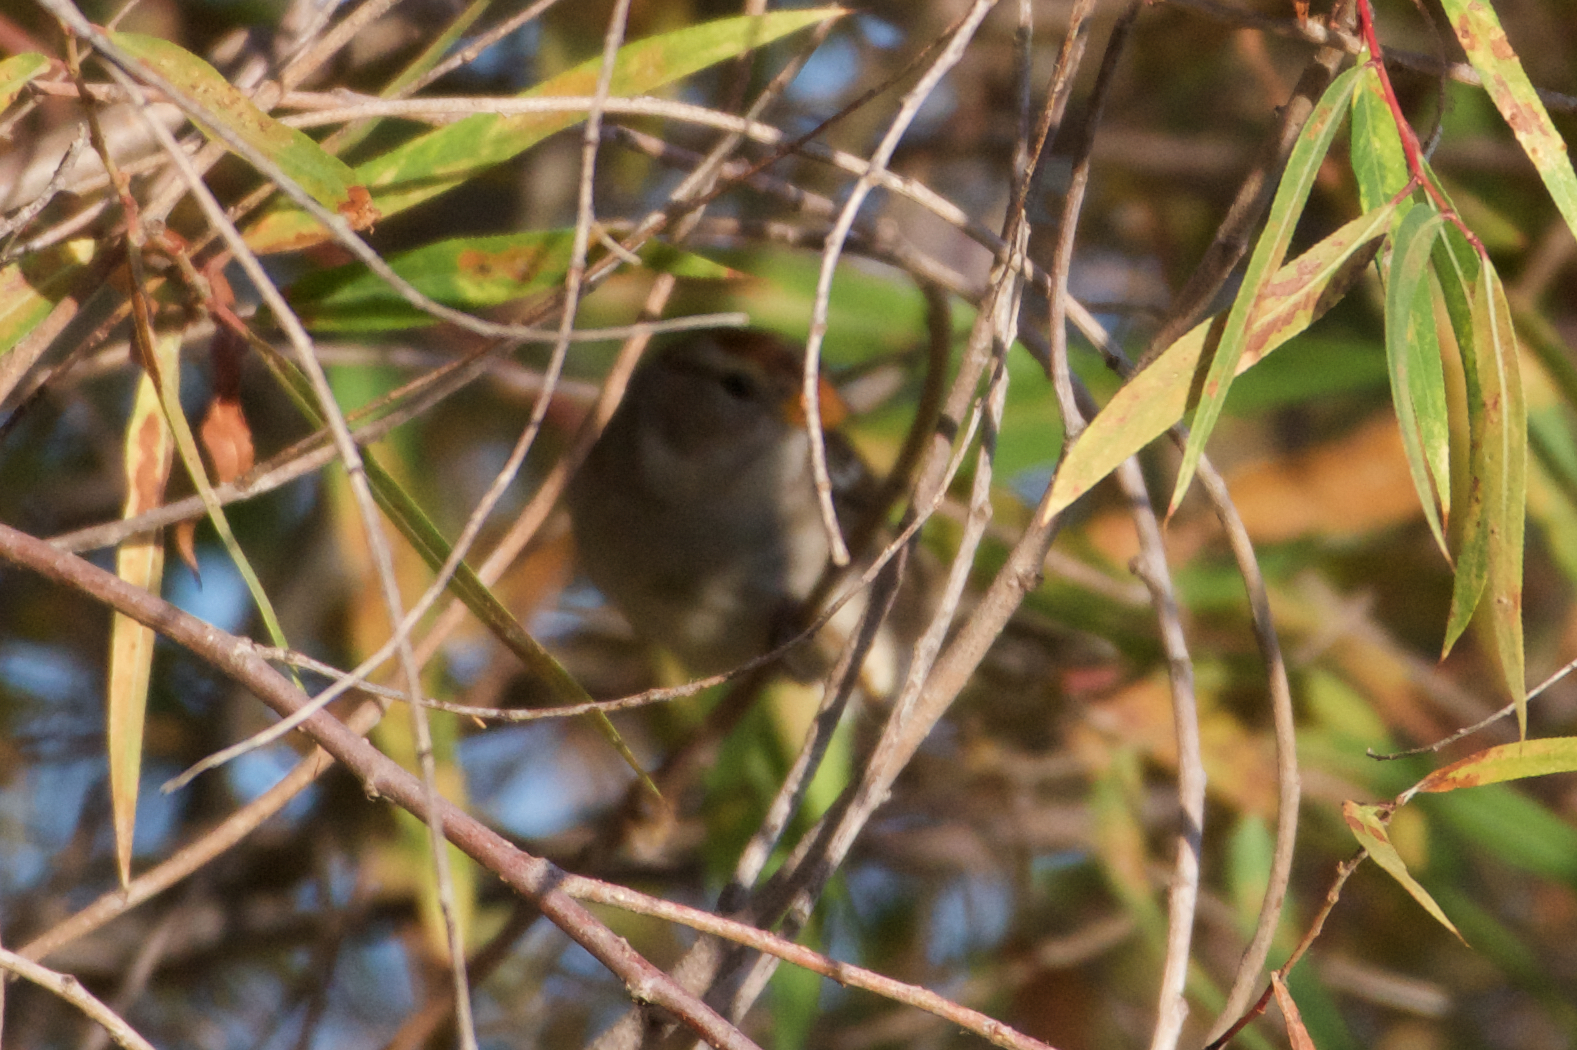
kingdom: Animalia
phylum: Chordata
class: Aves
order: Passeriformes
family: Passerellidae
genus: Zonotrichia
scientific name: Zonotrichia leucophrys
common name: White-crowned sparrow
